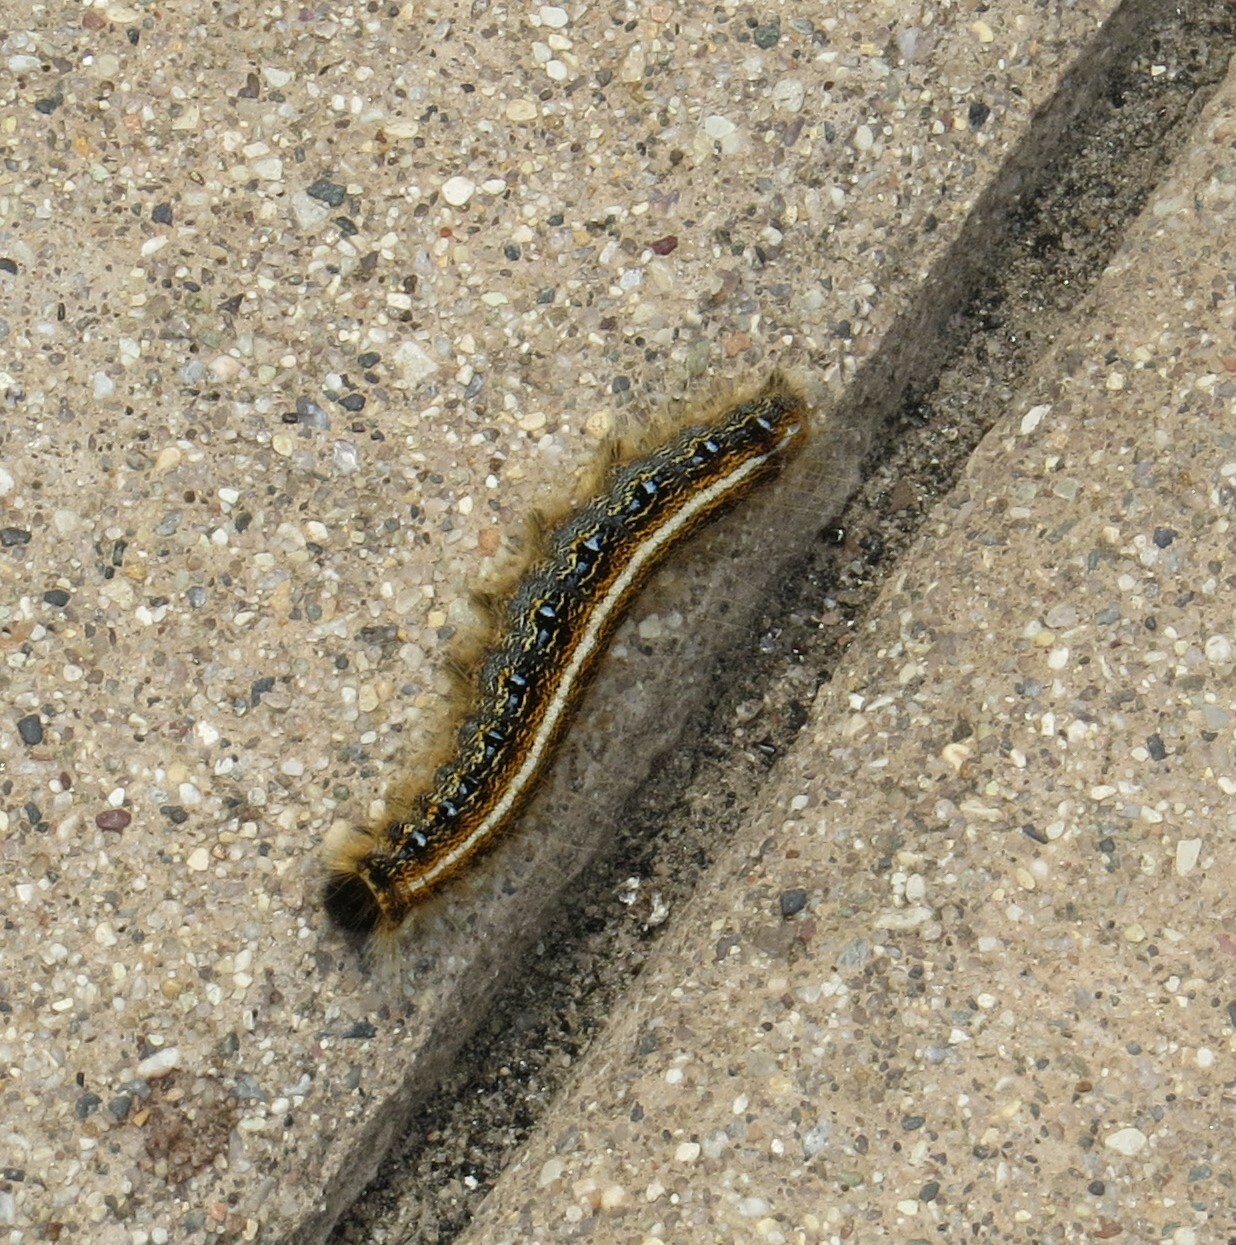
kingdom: Animalia
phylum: Arthropoda
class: Insecta
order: Lepidoptera
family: Lasiocampidae
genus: Malacosoma
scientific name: Malacosoma americana
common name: Eastern tent caterpillar moth
